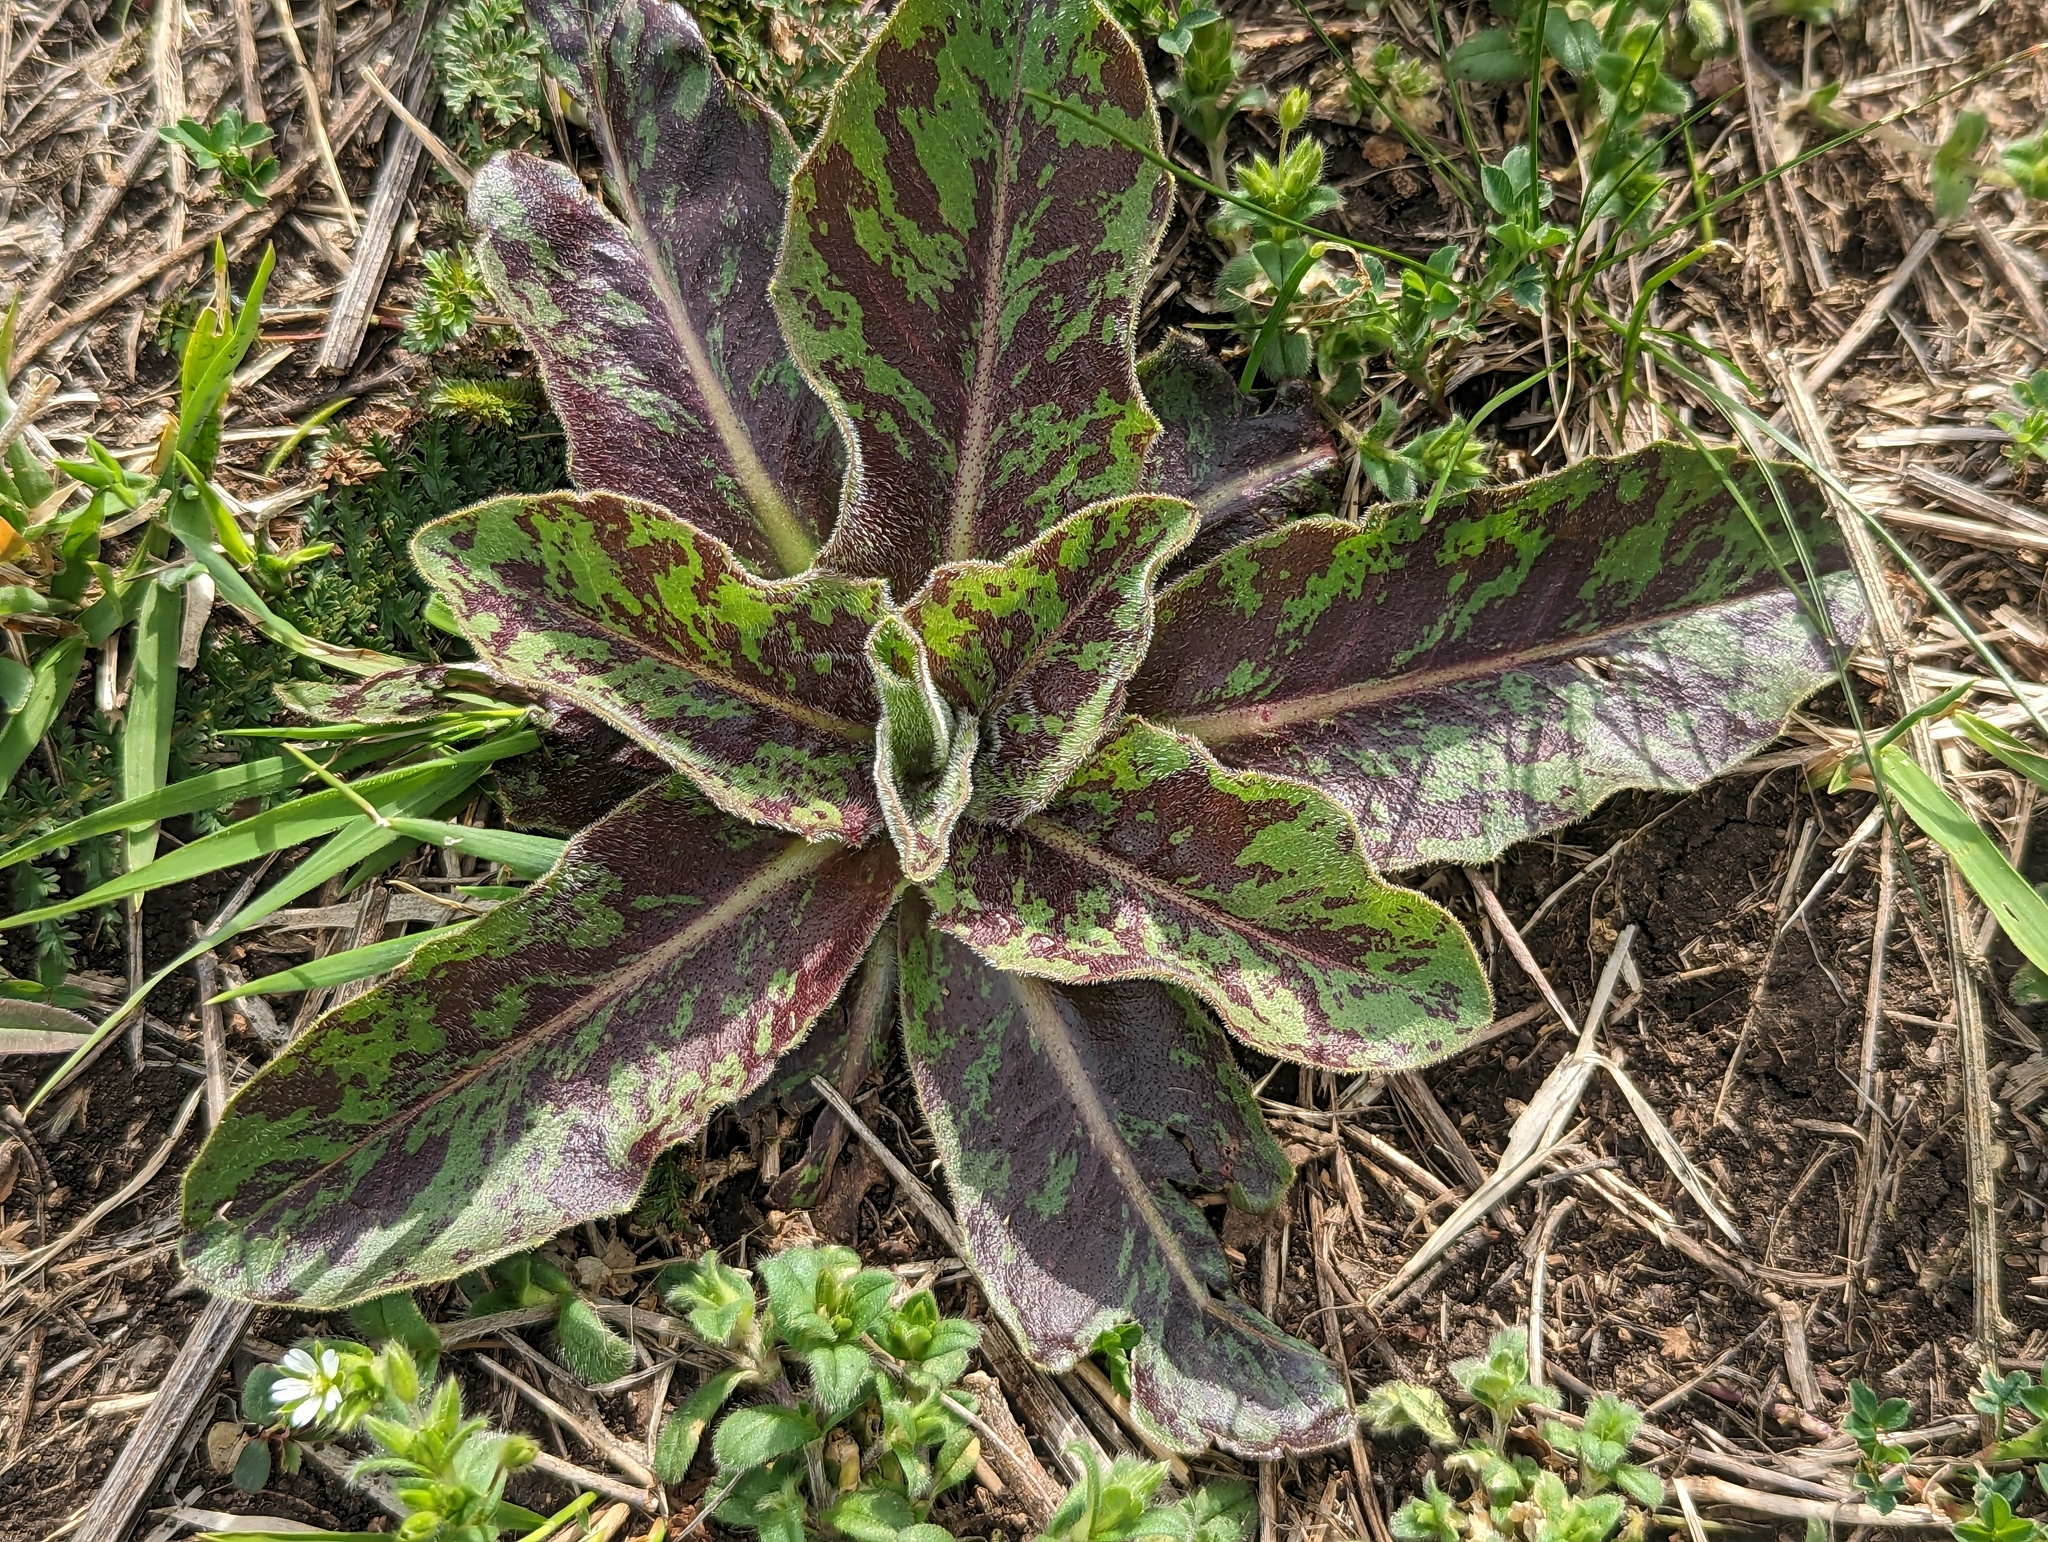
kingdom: Plantae
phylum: Tracheophyta
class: Magnoliopsida
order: Asterales
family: Asteraceae
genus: Trommsdorffia
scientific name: Trommsdorffia maculata
